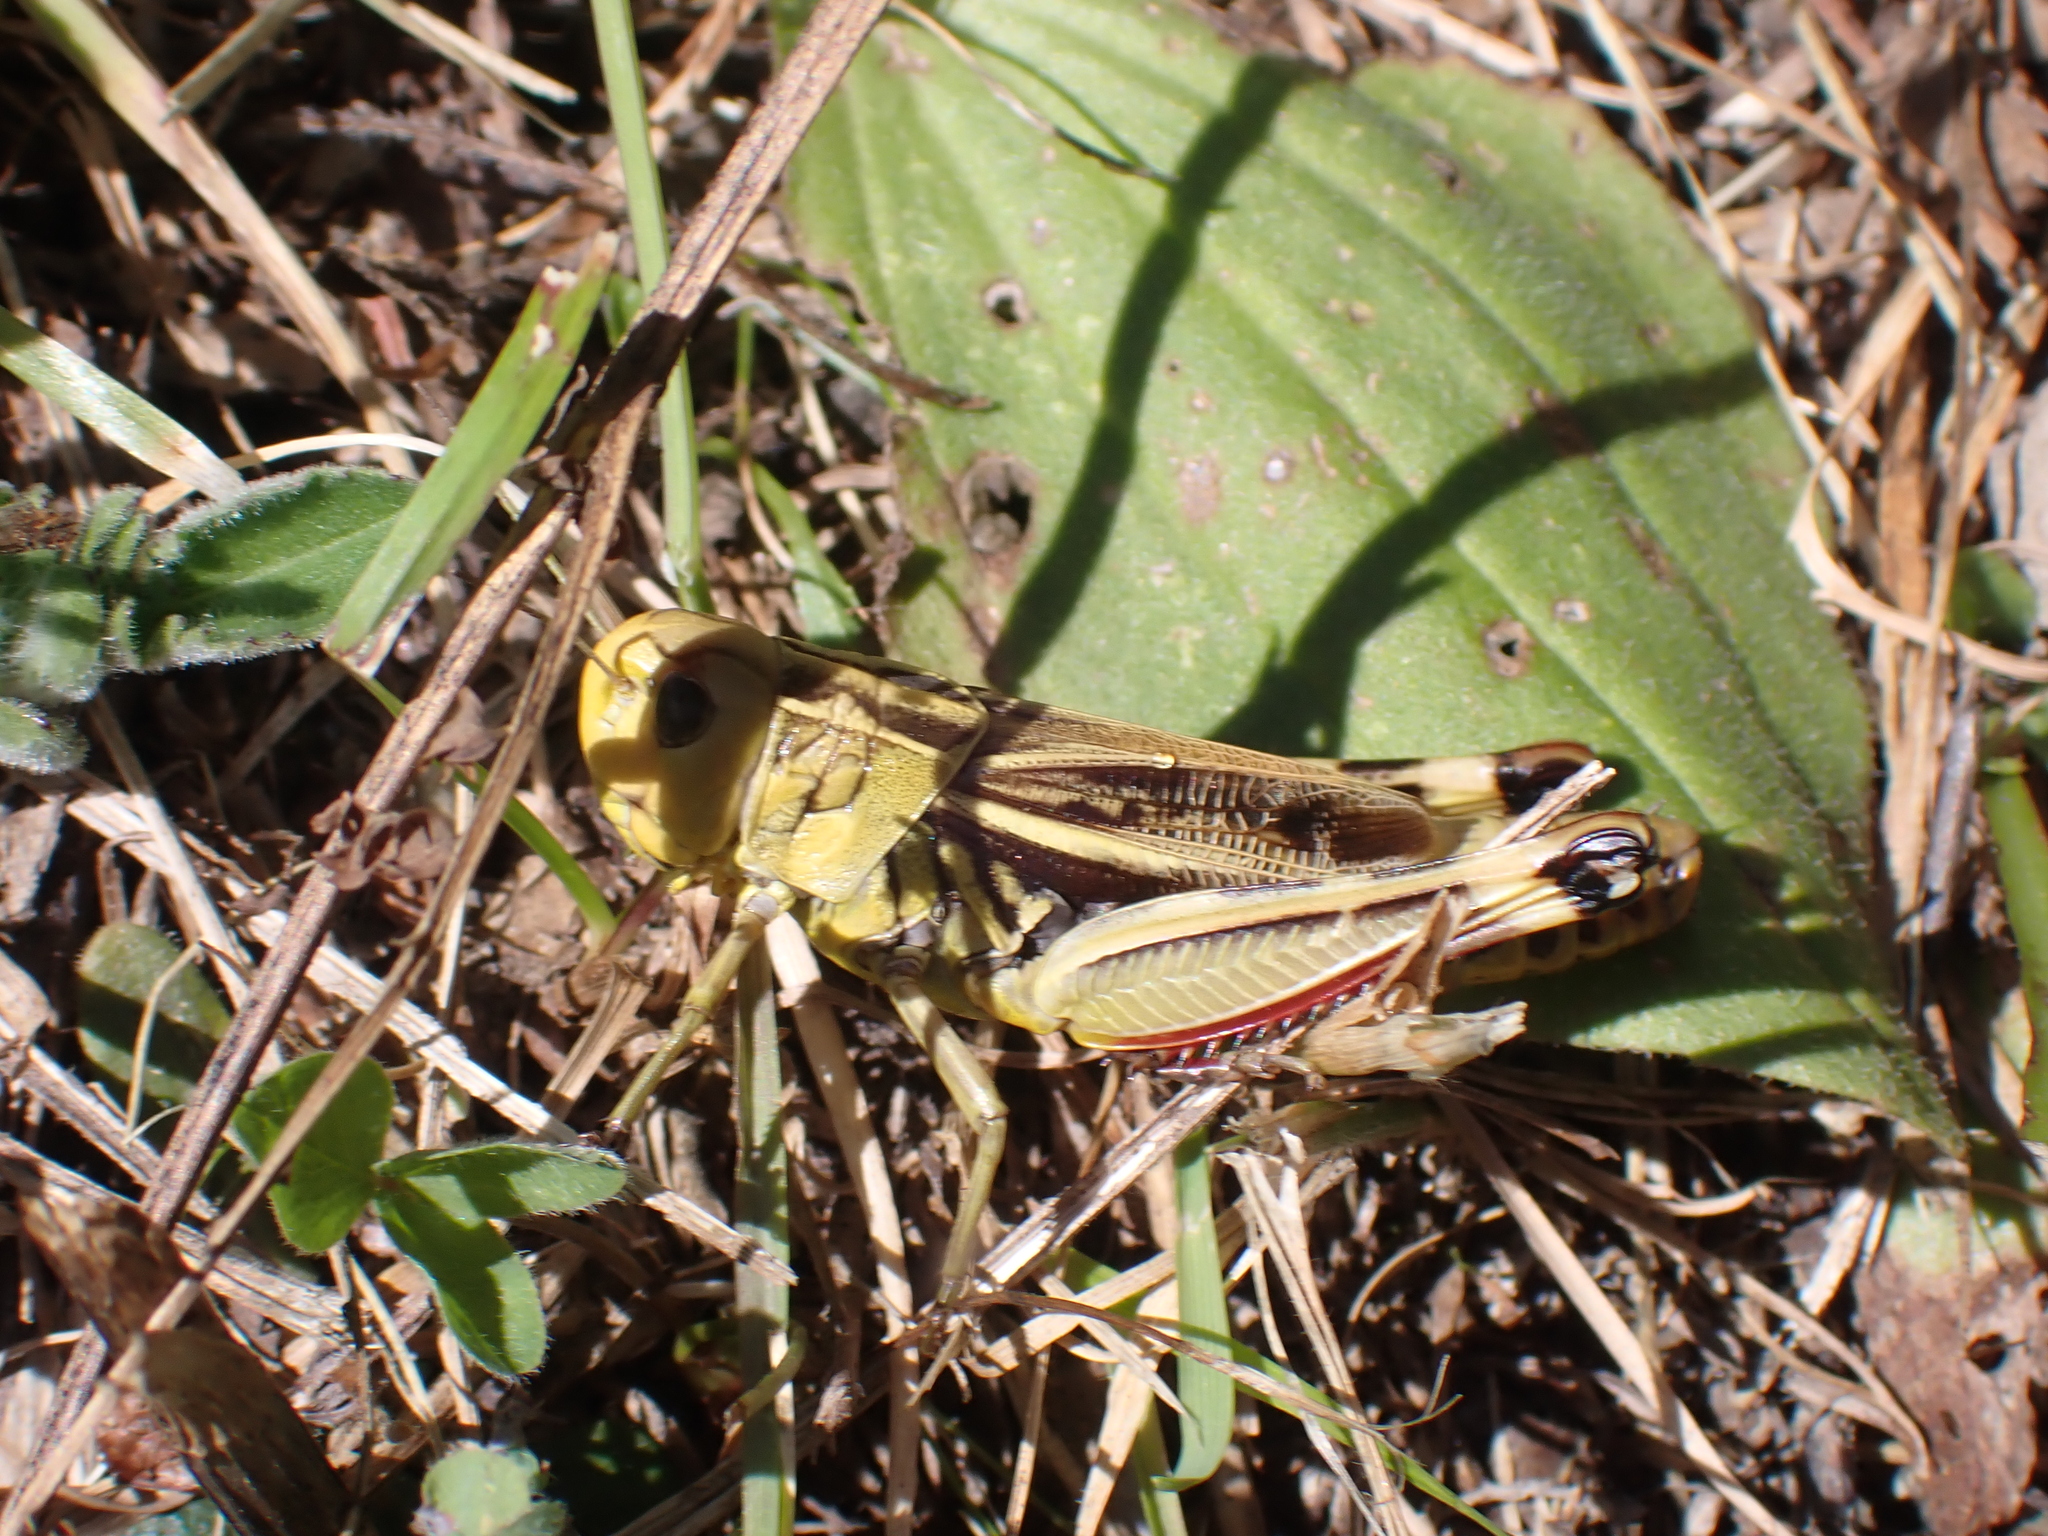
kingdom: Animalia
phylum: Arthropoda
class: Insecta
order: Orthoptera
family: Acrididae
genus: Arcyptera
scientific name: Arcyptera fusca
